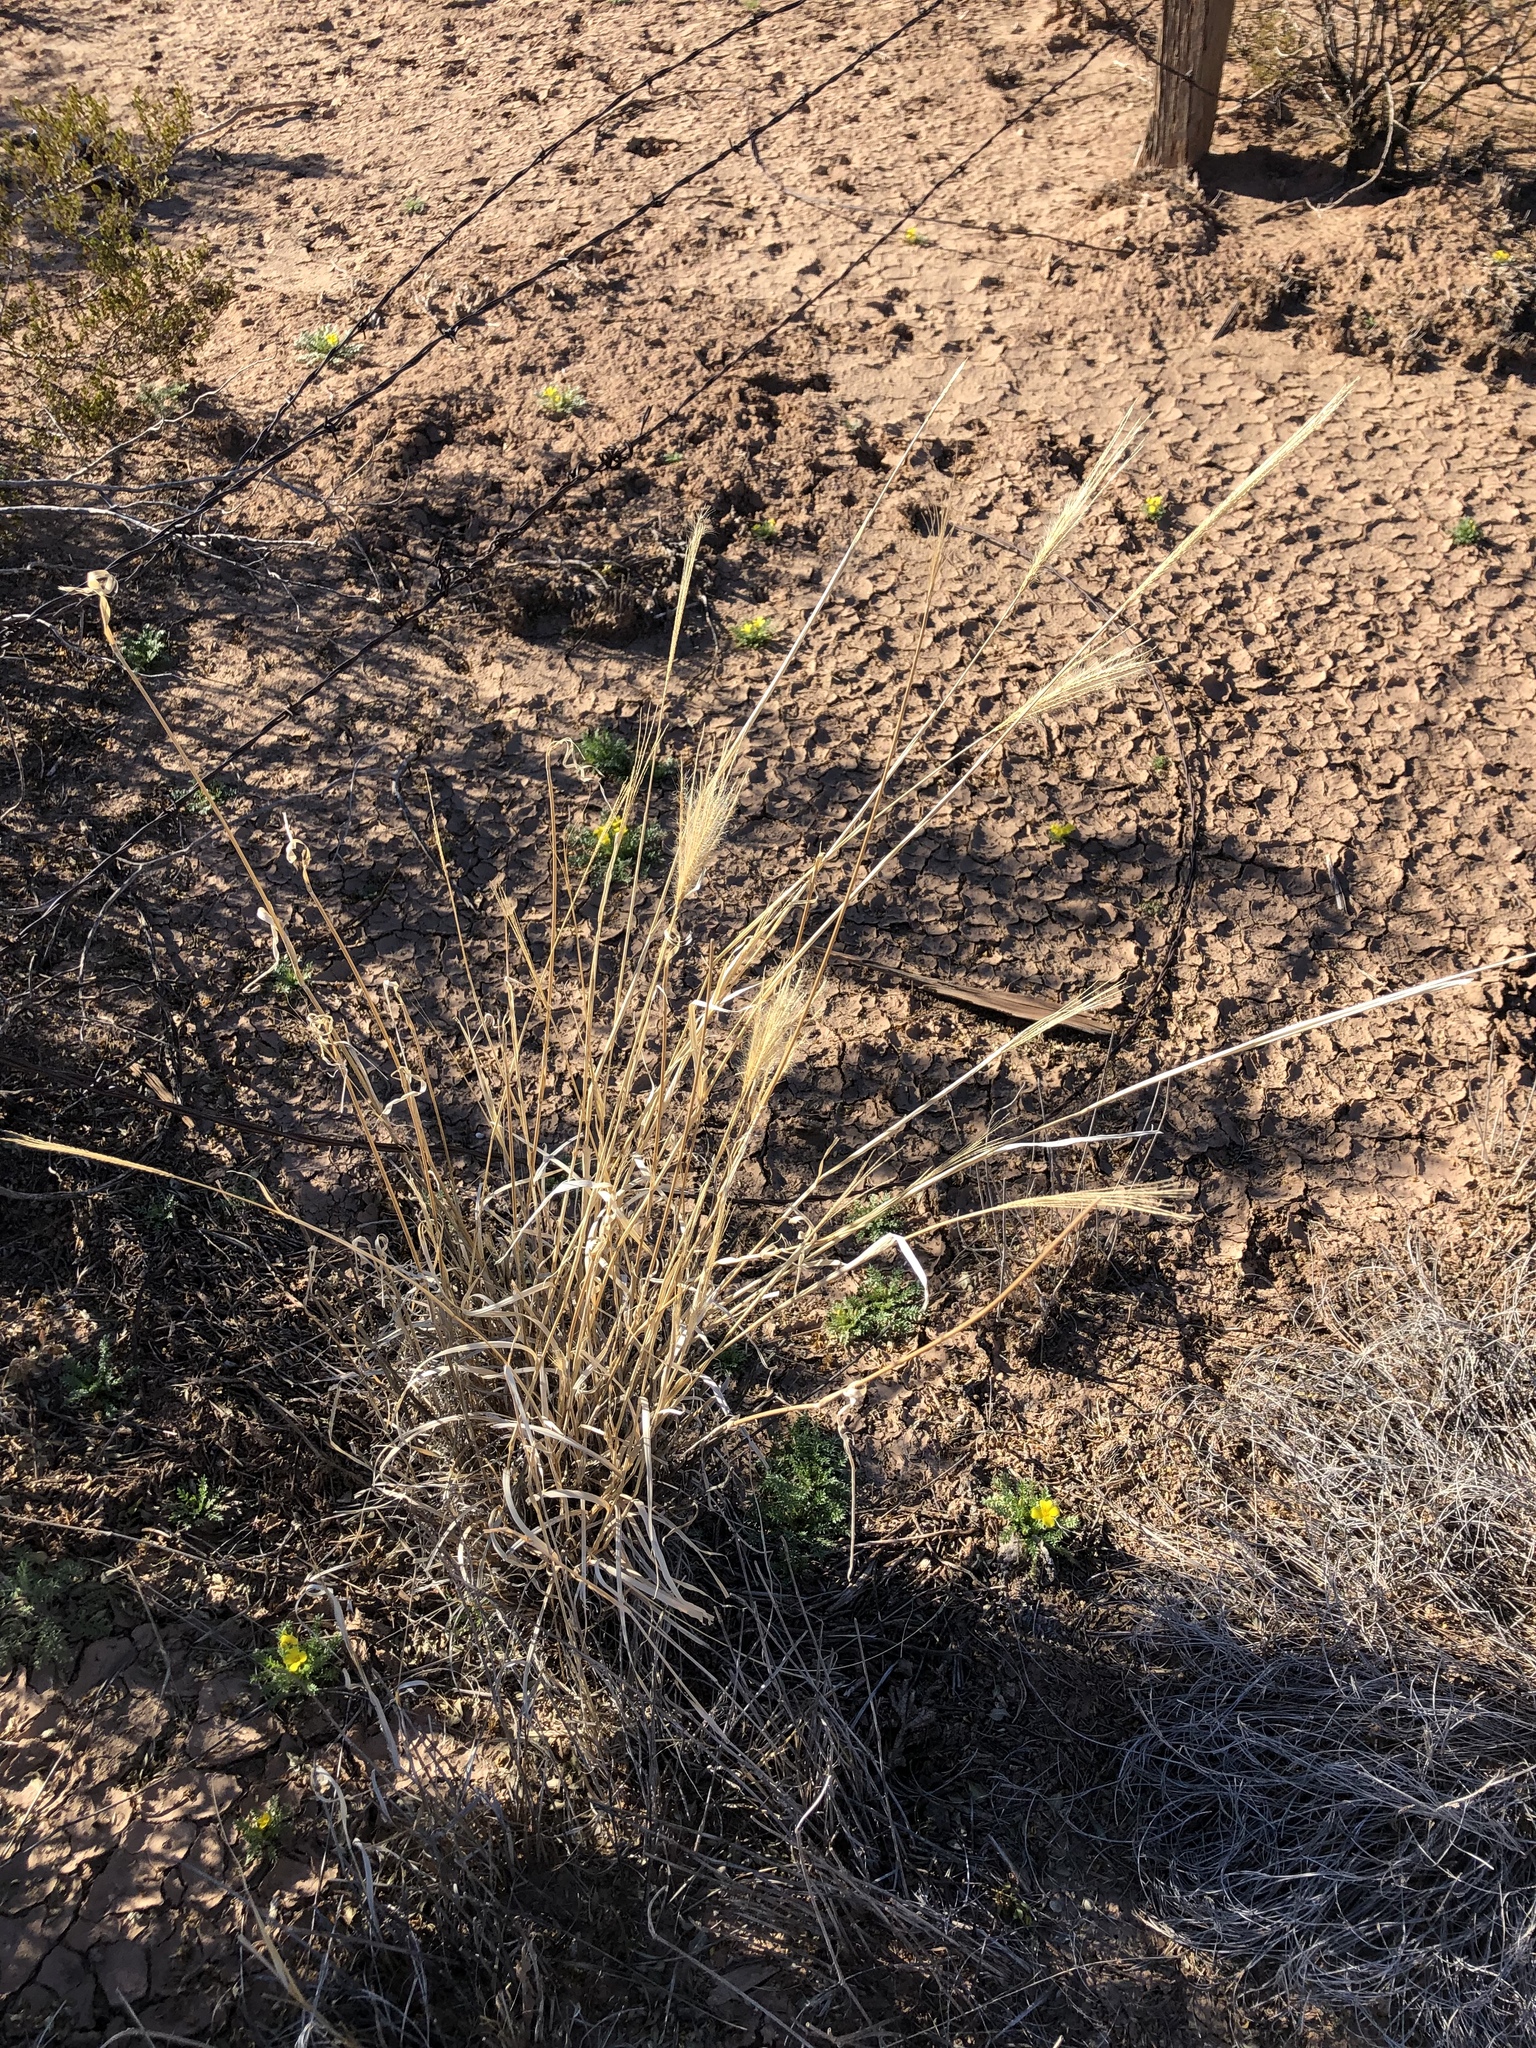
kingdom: Plantae
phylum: Tracheophyta
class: Liliopsida
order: Poales
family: Poaceae
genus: Leptochloa
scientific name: Leptochloa crinita
